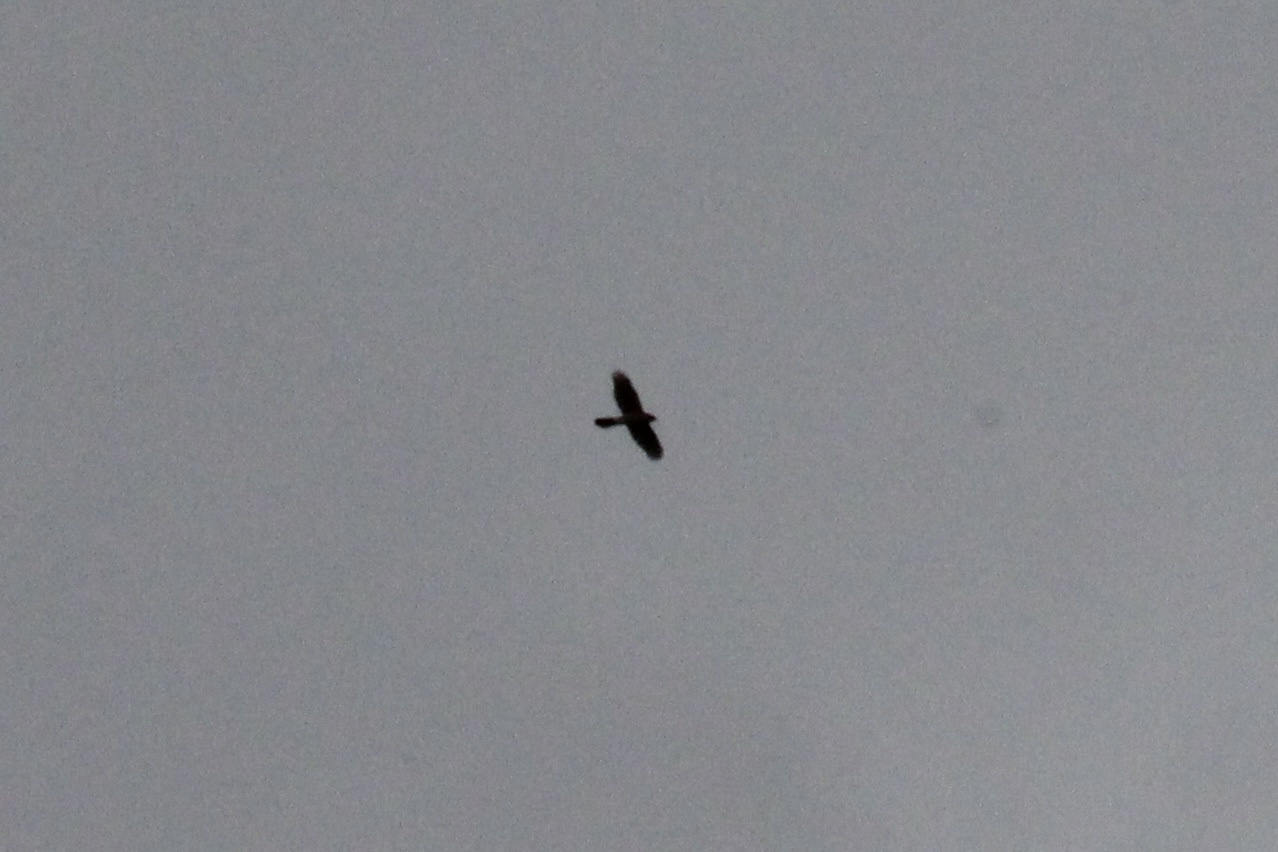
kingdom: Animalia
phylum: Chordata
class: Aves
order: Accipitriformes
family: Accipitridae
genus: Accipiter
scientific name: Accipiter cooperii
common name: Cooper's hawk
